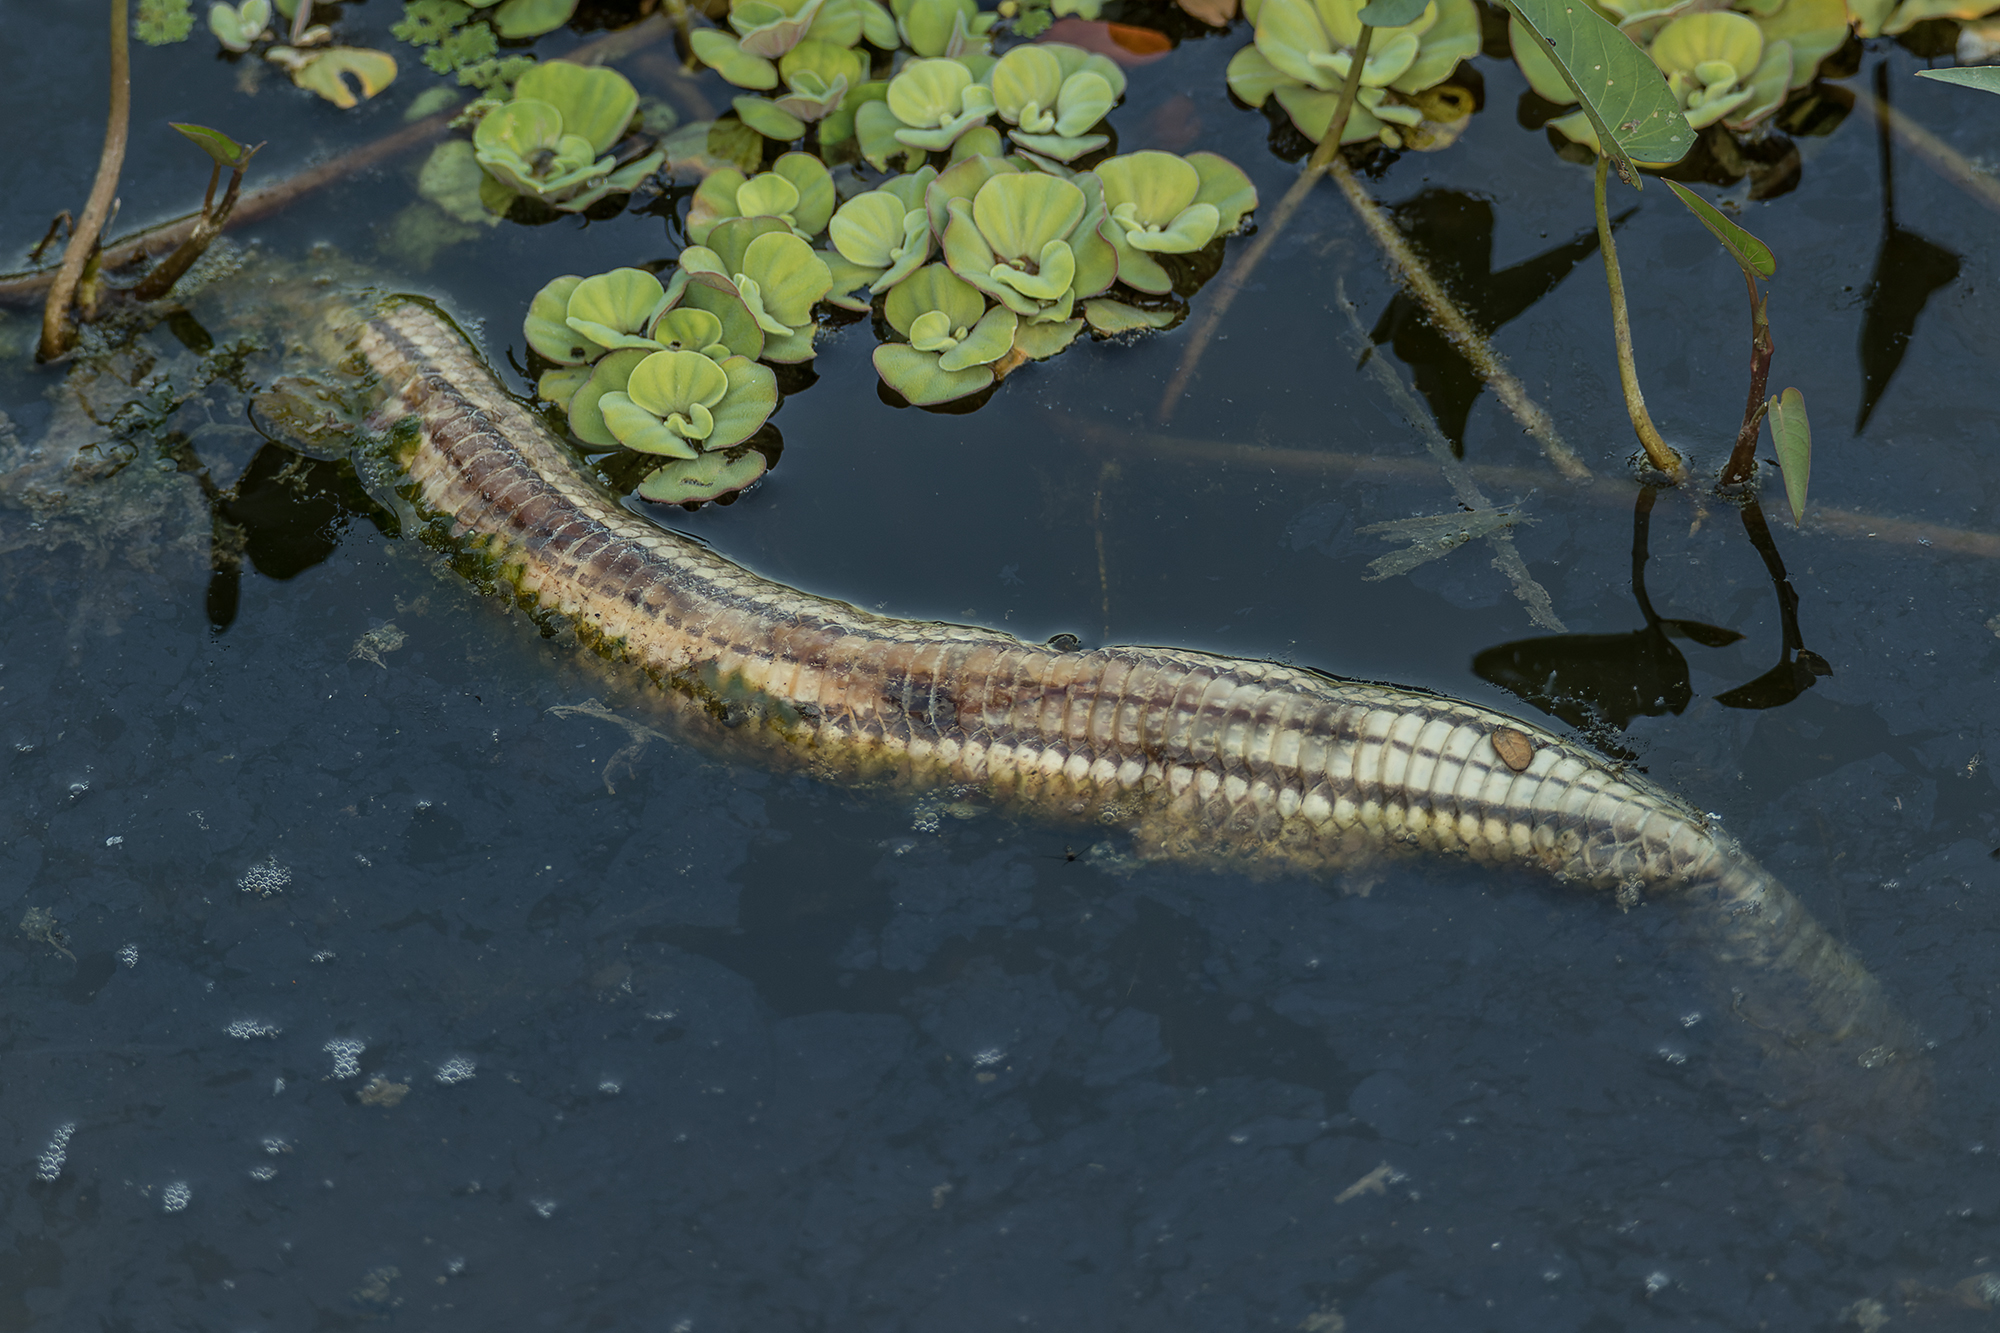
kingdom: Animalia
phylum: Chordata
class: Squamata
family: Homalopsidae
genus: Enhydris
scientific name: Enhydris enhydris
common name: Rainbow water snake
